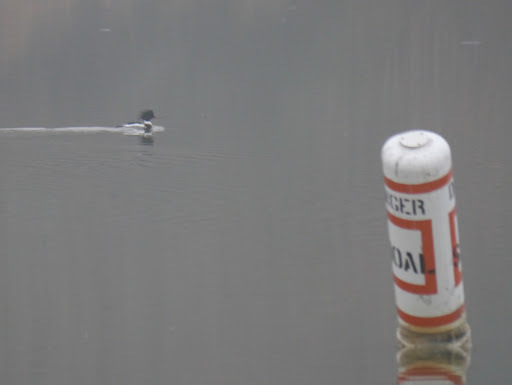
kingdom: Animalia
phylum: Chordata
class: Aves
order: Anseriformes
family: Anatidae
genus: Mergus
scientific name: Mergus serrator
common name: Red-breasted merganser
